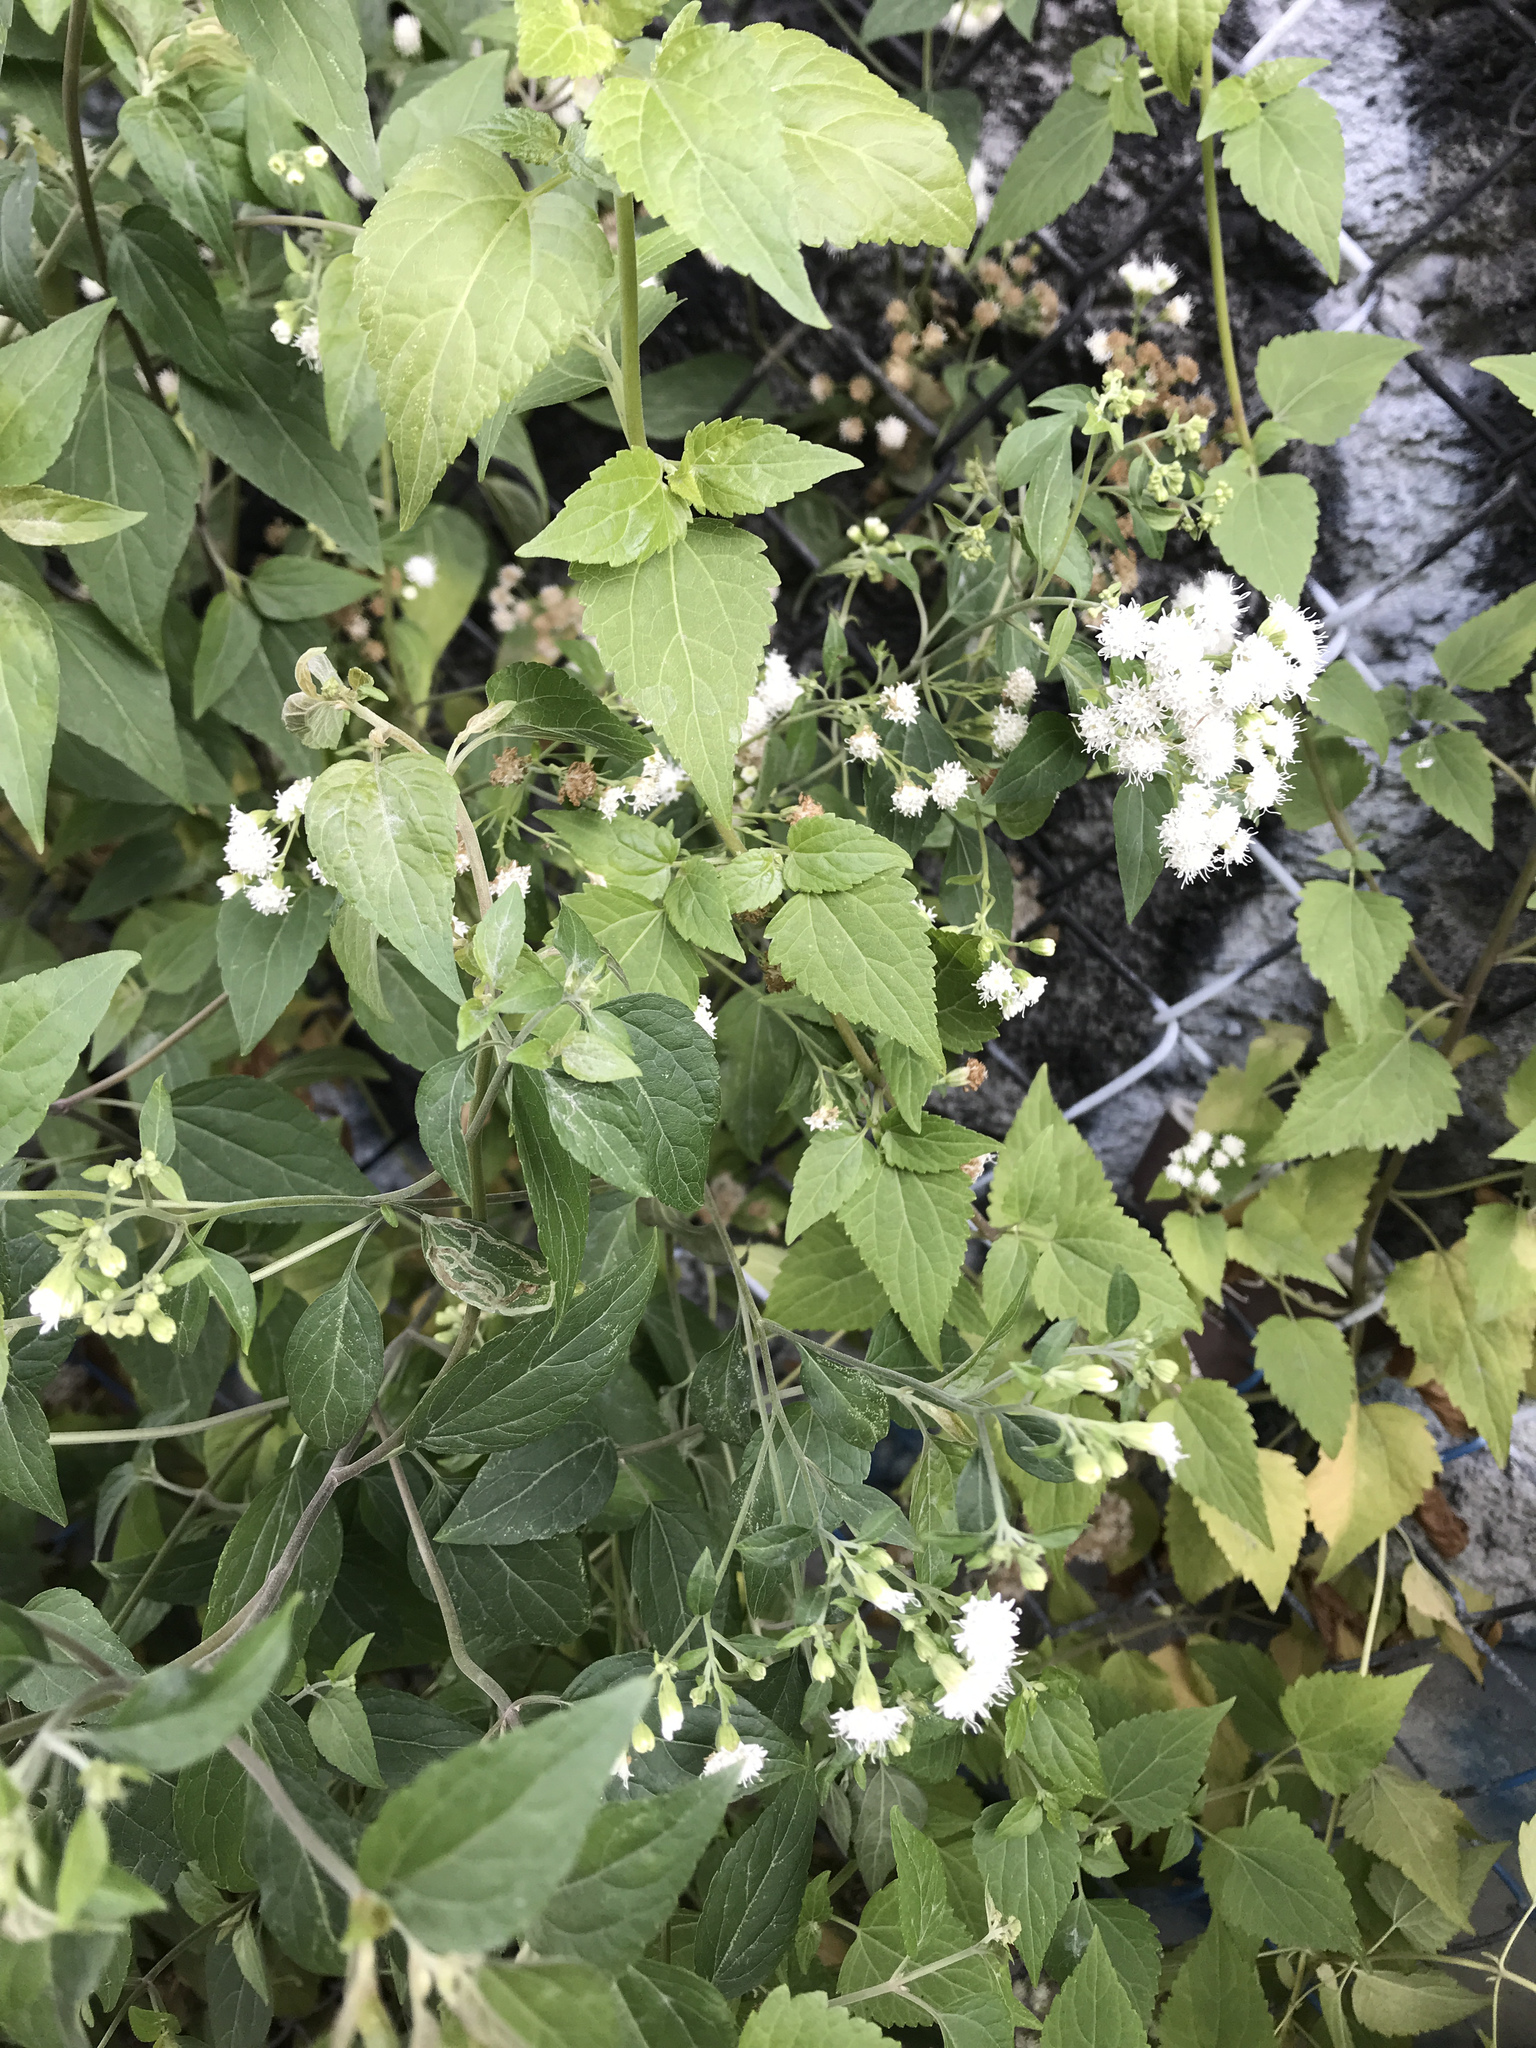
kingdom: Plantae
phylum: Tracheophyta
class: Magnoliopsida
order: Asterales
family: Asteraceae
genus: Ageratina
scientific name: Ageratina altissima
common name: White snakeroot
